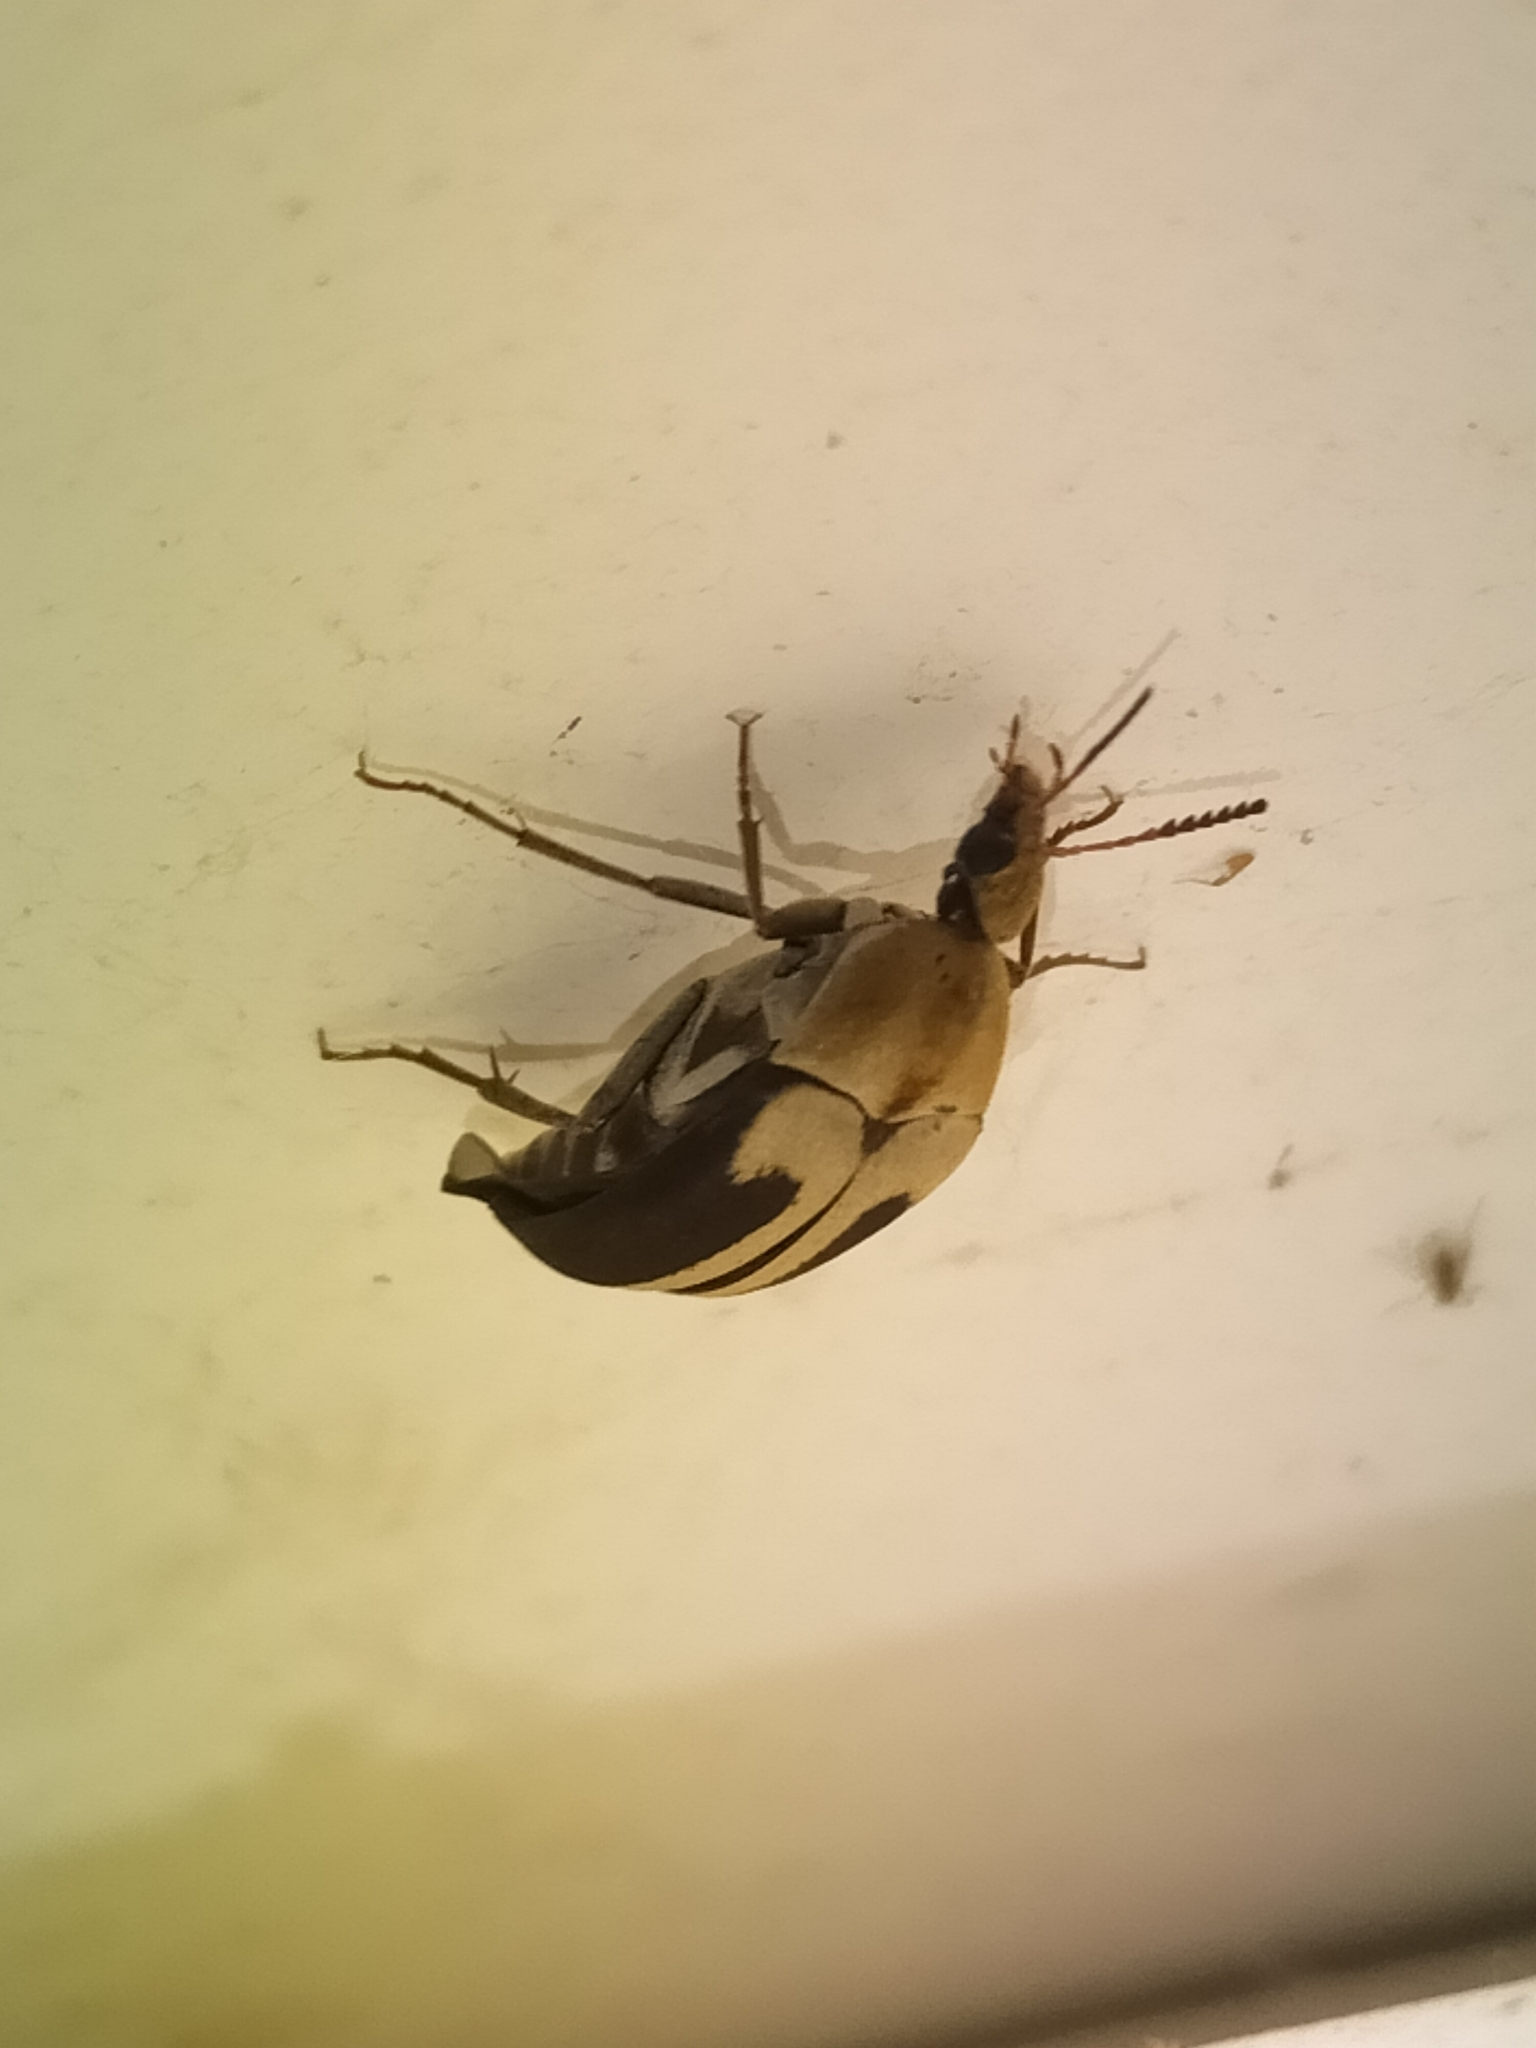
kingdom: Animalia
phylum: Arthropoda
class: Insecta
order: Coleoptera
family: Ripiphoridae
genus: Trigonodera
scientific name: Trigonodera
